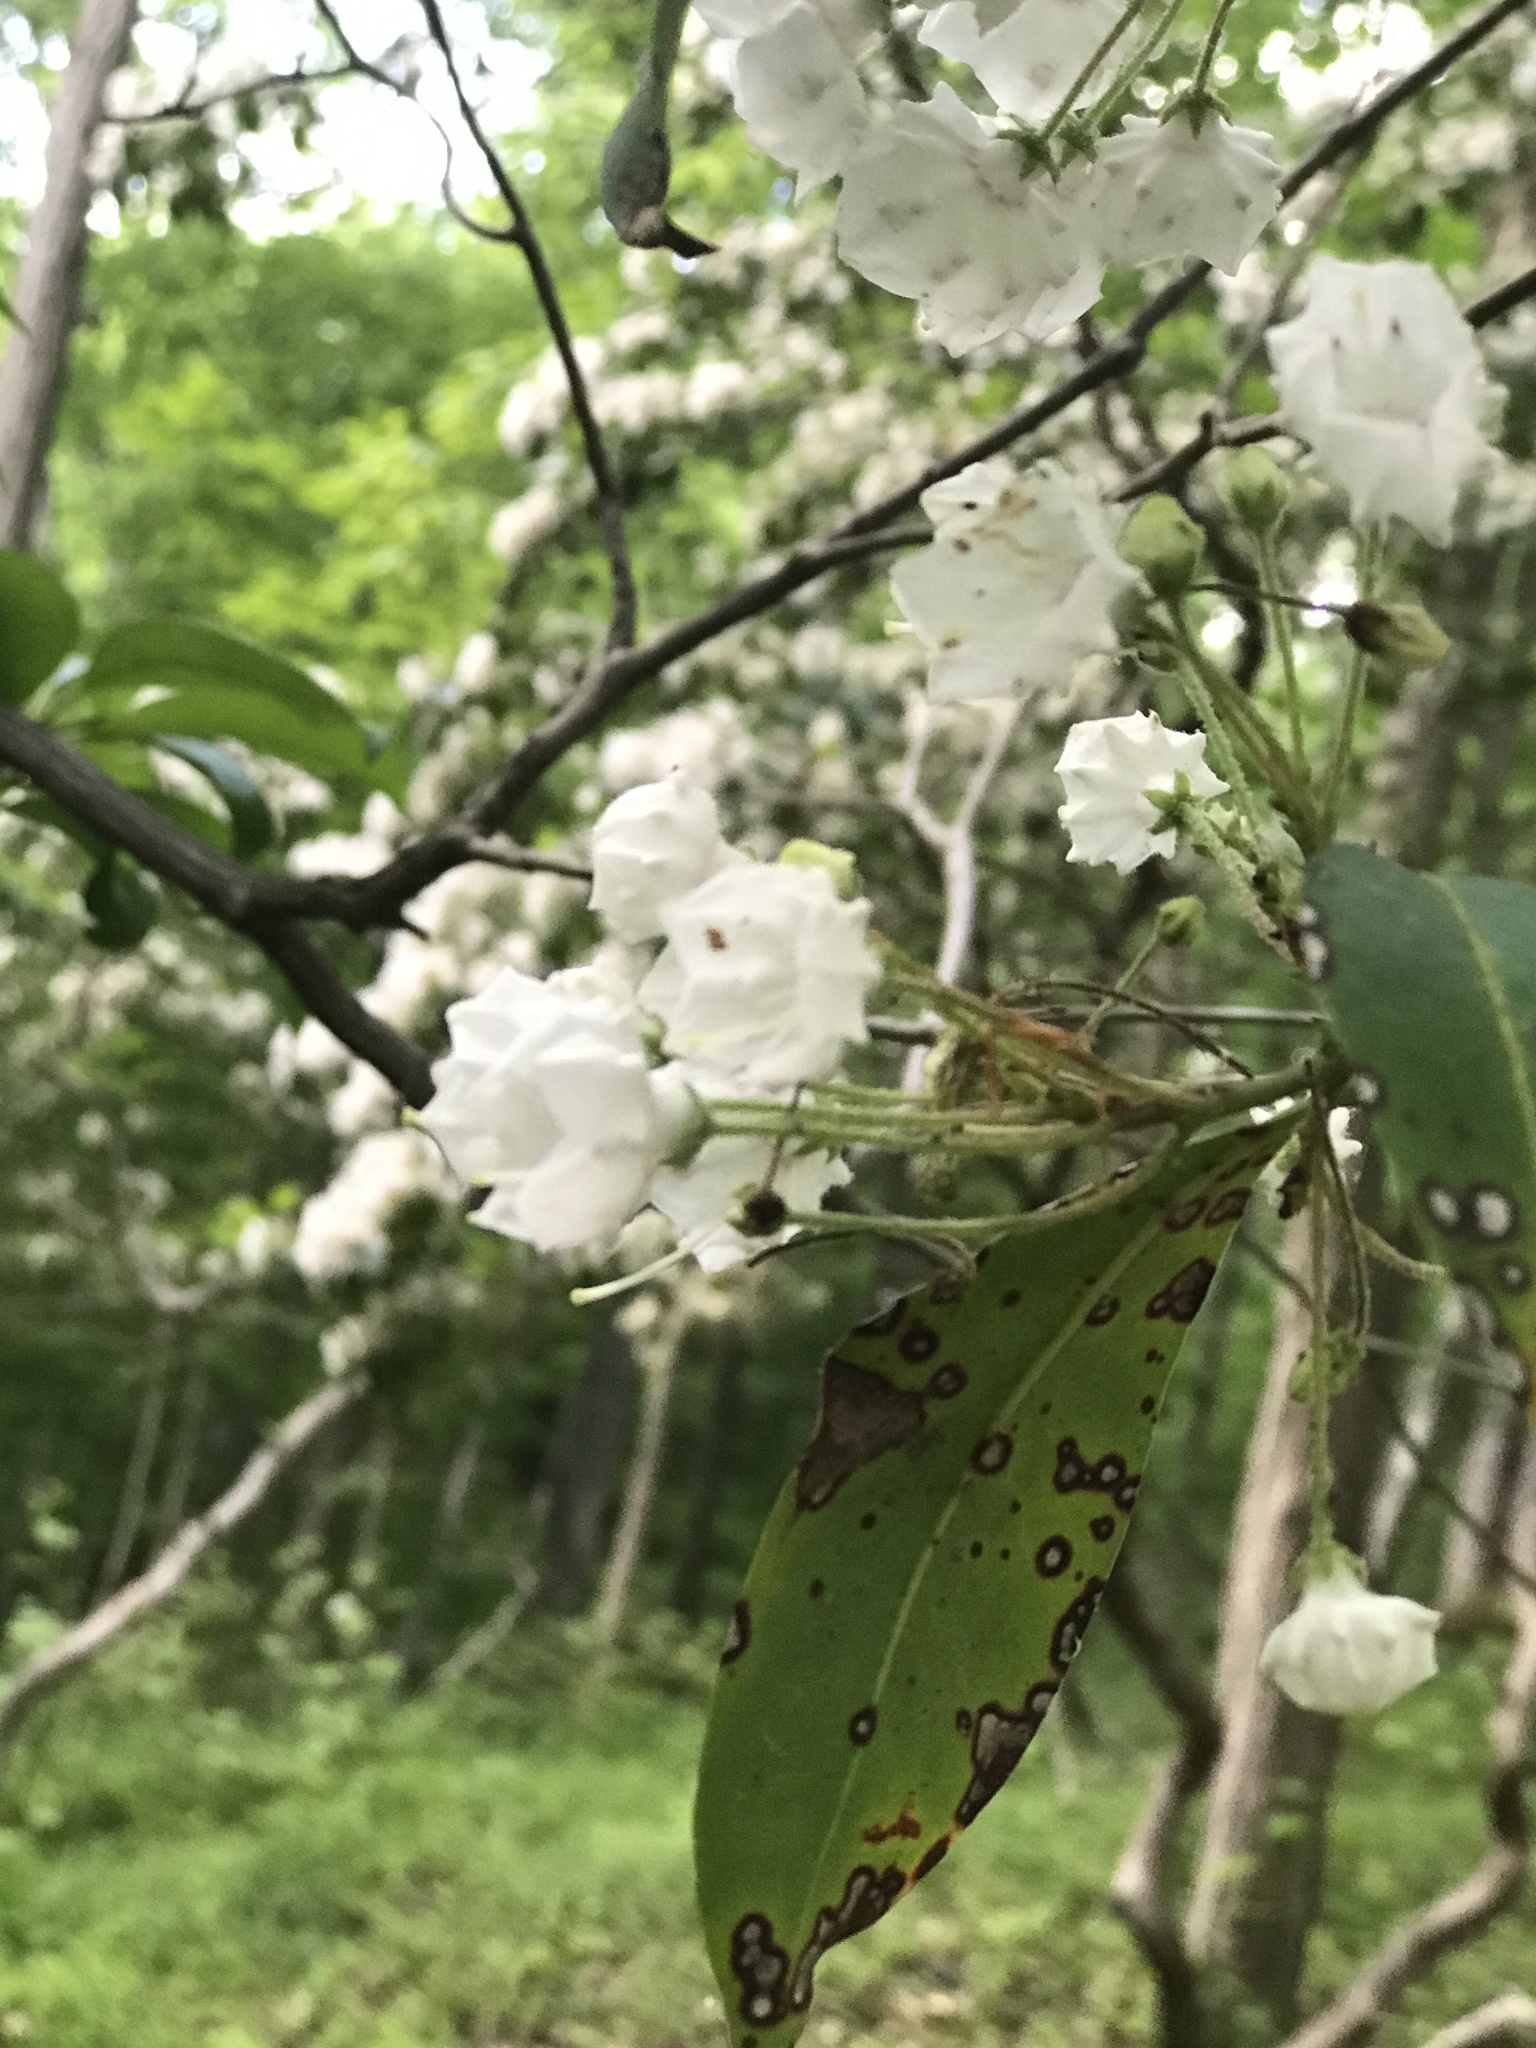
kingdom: Plantae
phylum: Tracheophyta
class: Magnoliopsida
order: Ericales
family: Ericaceae
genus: Kalmia
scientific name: Kalmia latifolia
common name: Mountain-laurel
